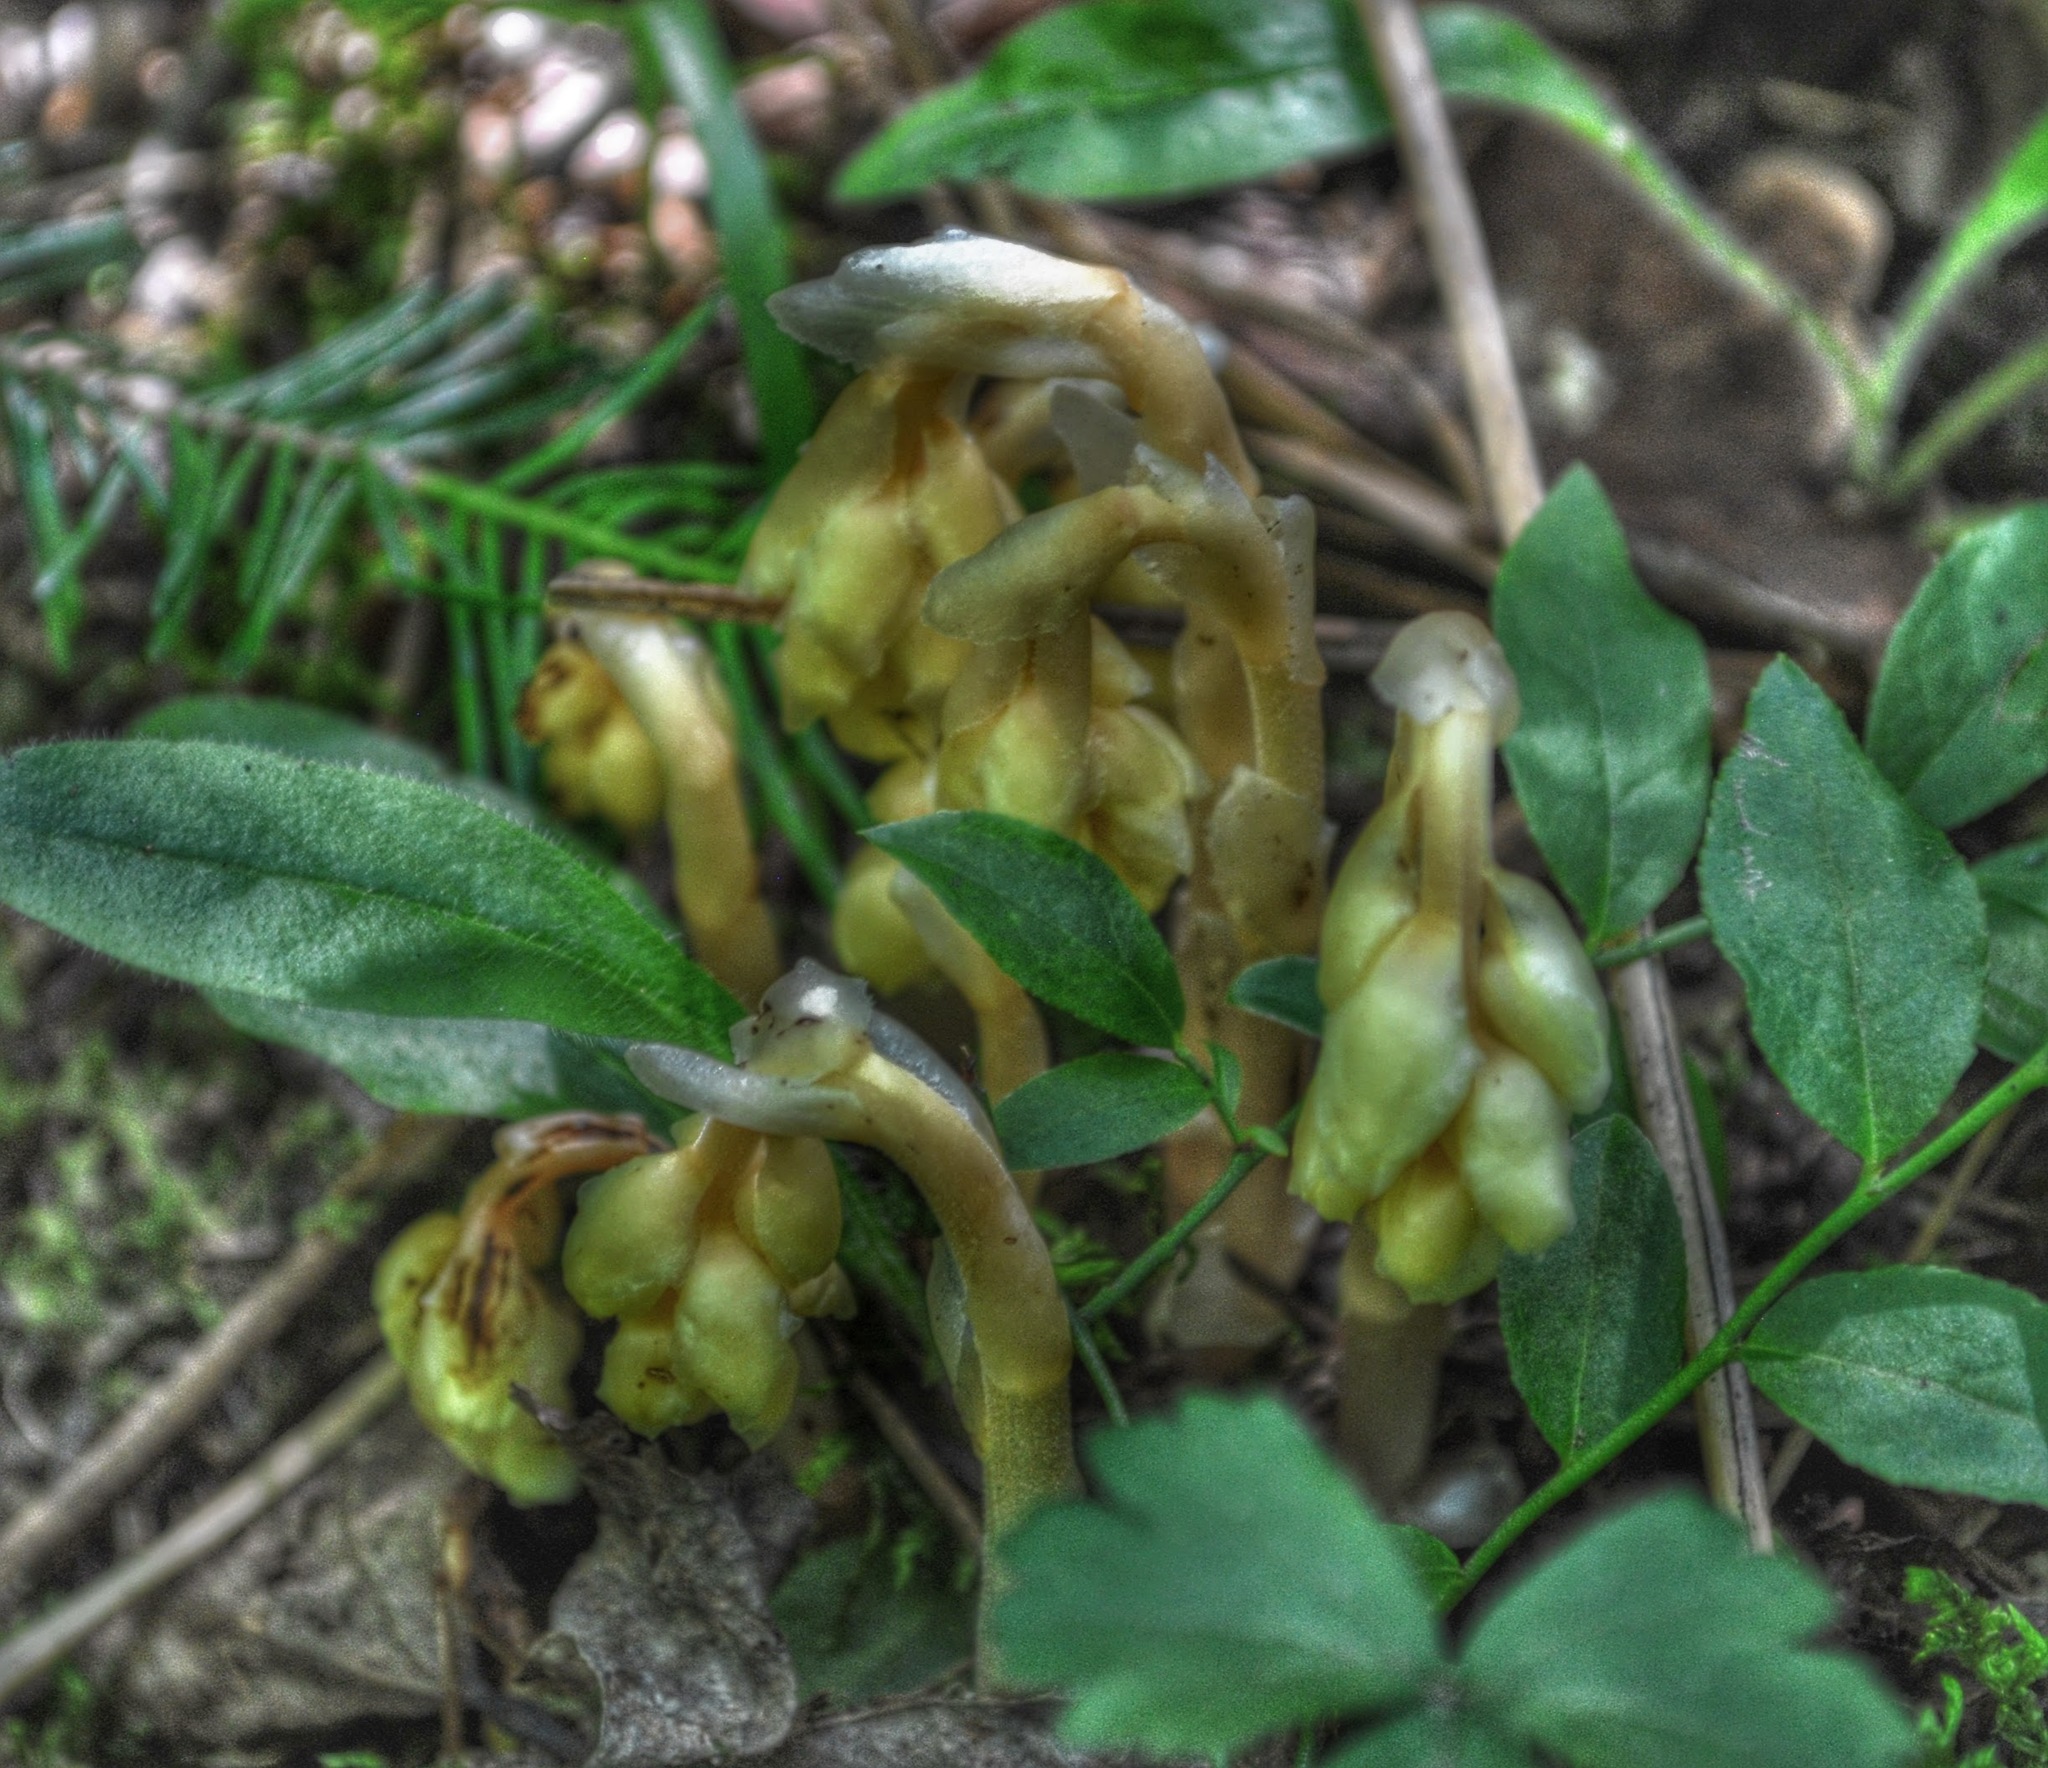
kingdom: Plantae
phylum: Tracheophyta
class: Magnoliopsida
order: Ericales
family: Ericaceae
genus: Hypopitys
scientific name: Hypopitys monotropa
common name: Yellow bird's-nest
